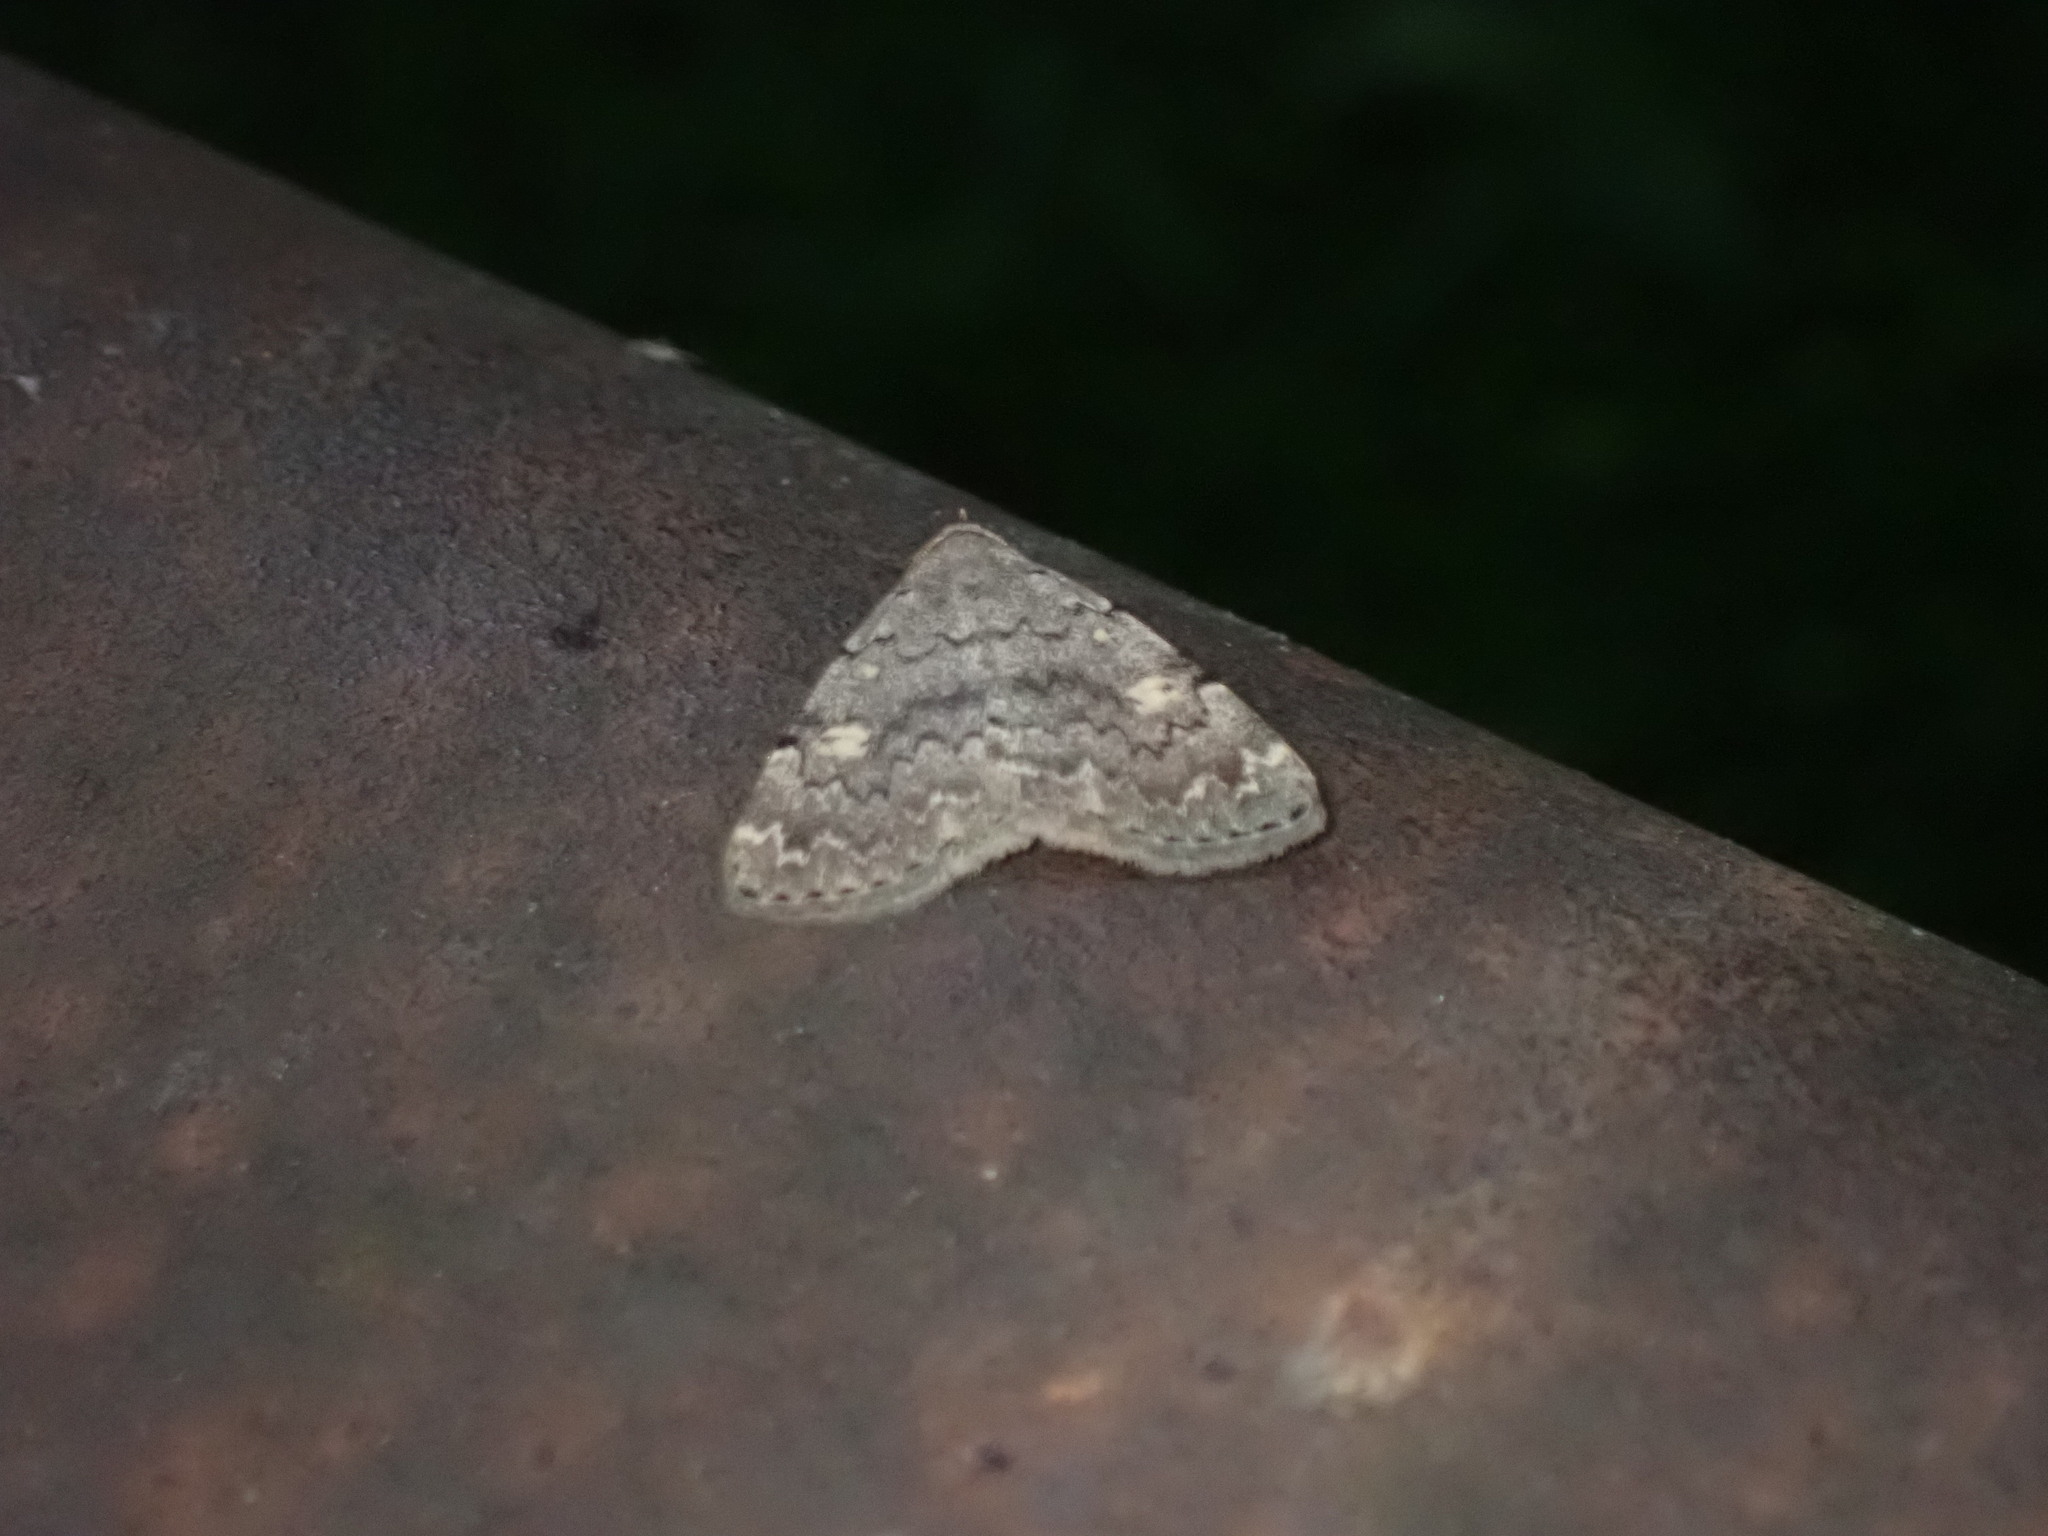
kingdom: Animalia
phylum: Arthropoda
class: Insecta
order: Lepidoptera
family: Erebidae
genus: Idia
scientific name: Idia aemula
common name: Common idia moth
